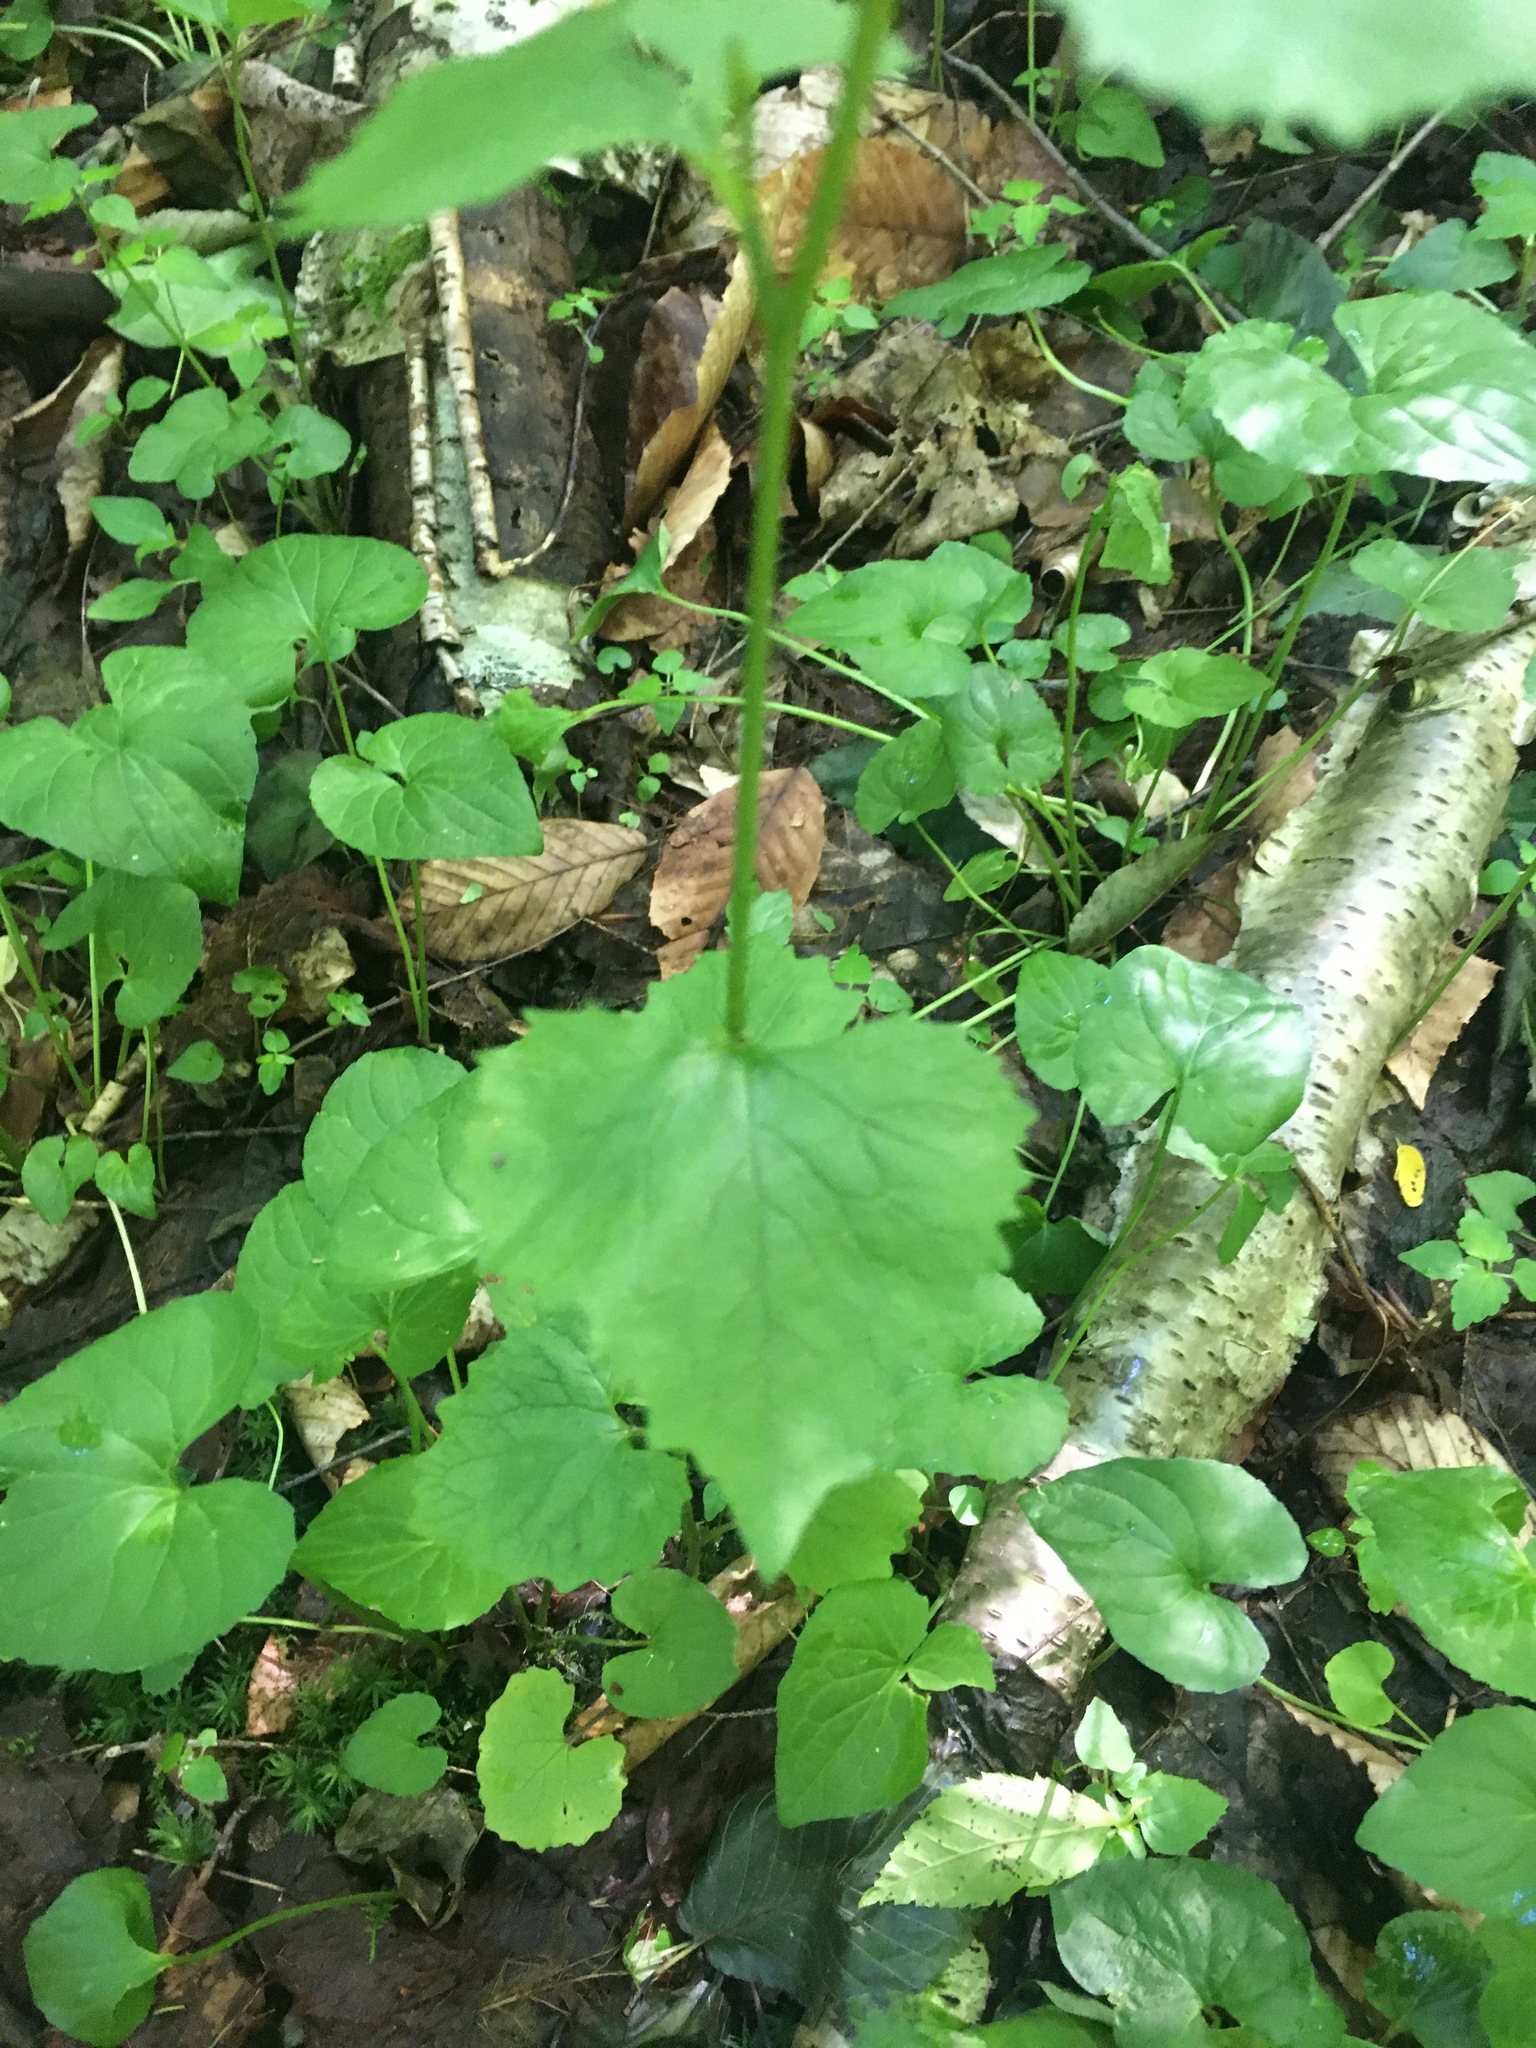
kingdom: Plantae
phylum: Tracheophyta
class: Magnoliopsida
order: Brassicales
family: Brassicaceae
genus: Alliaria
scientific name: Alliaria petiolata
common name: Garlic mustard
